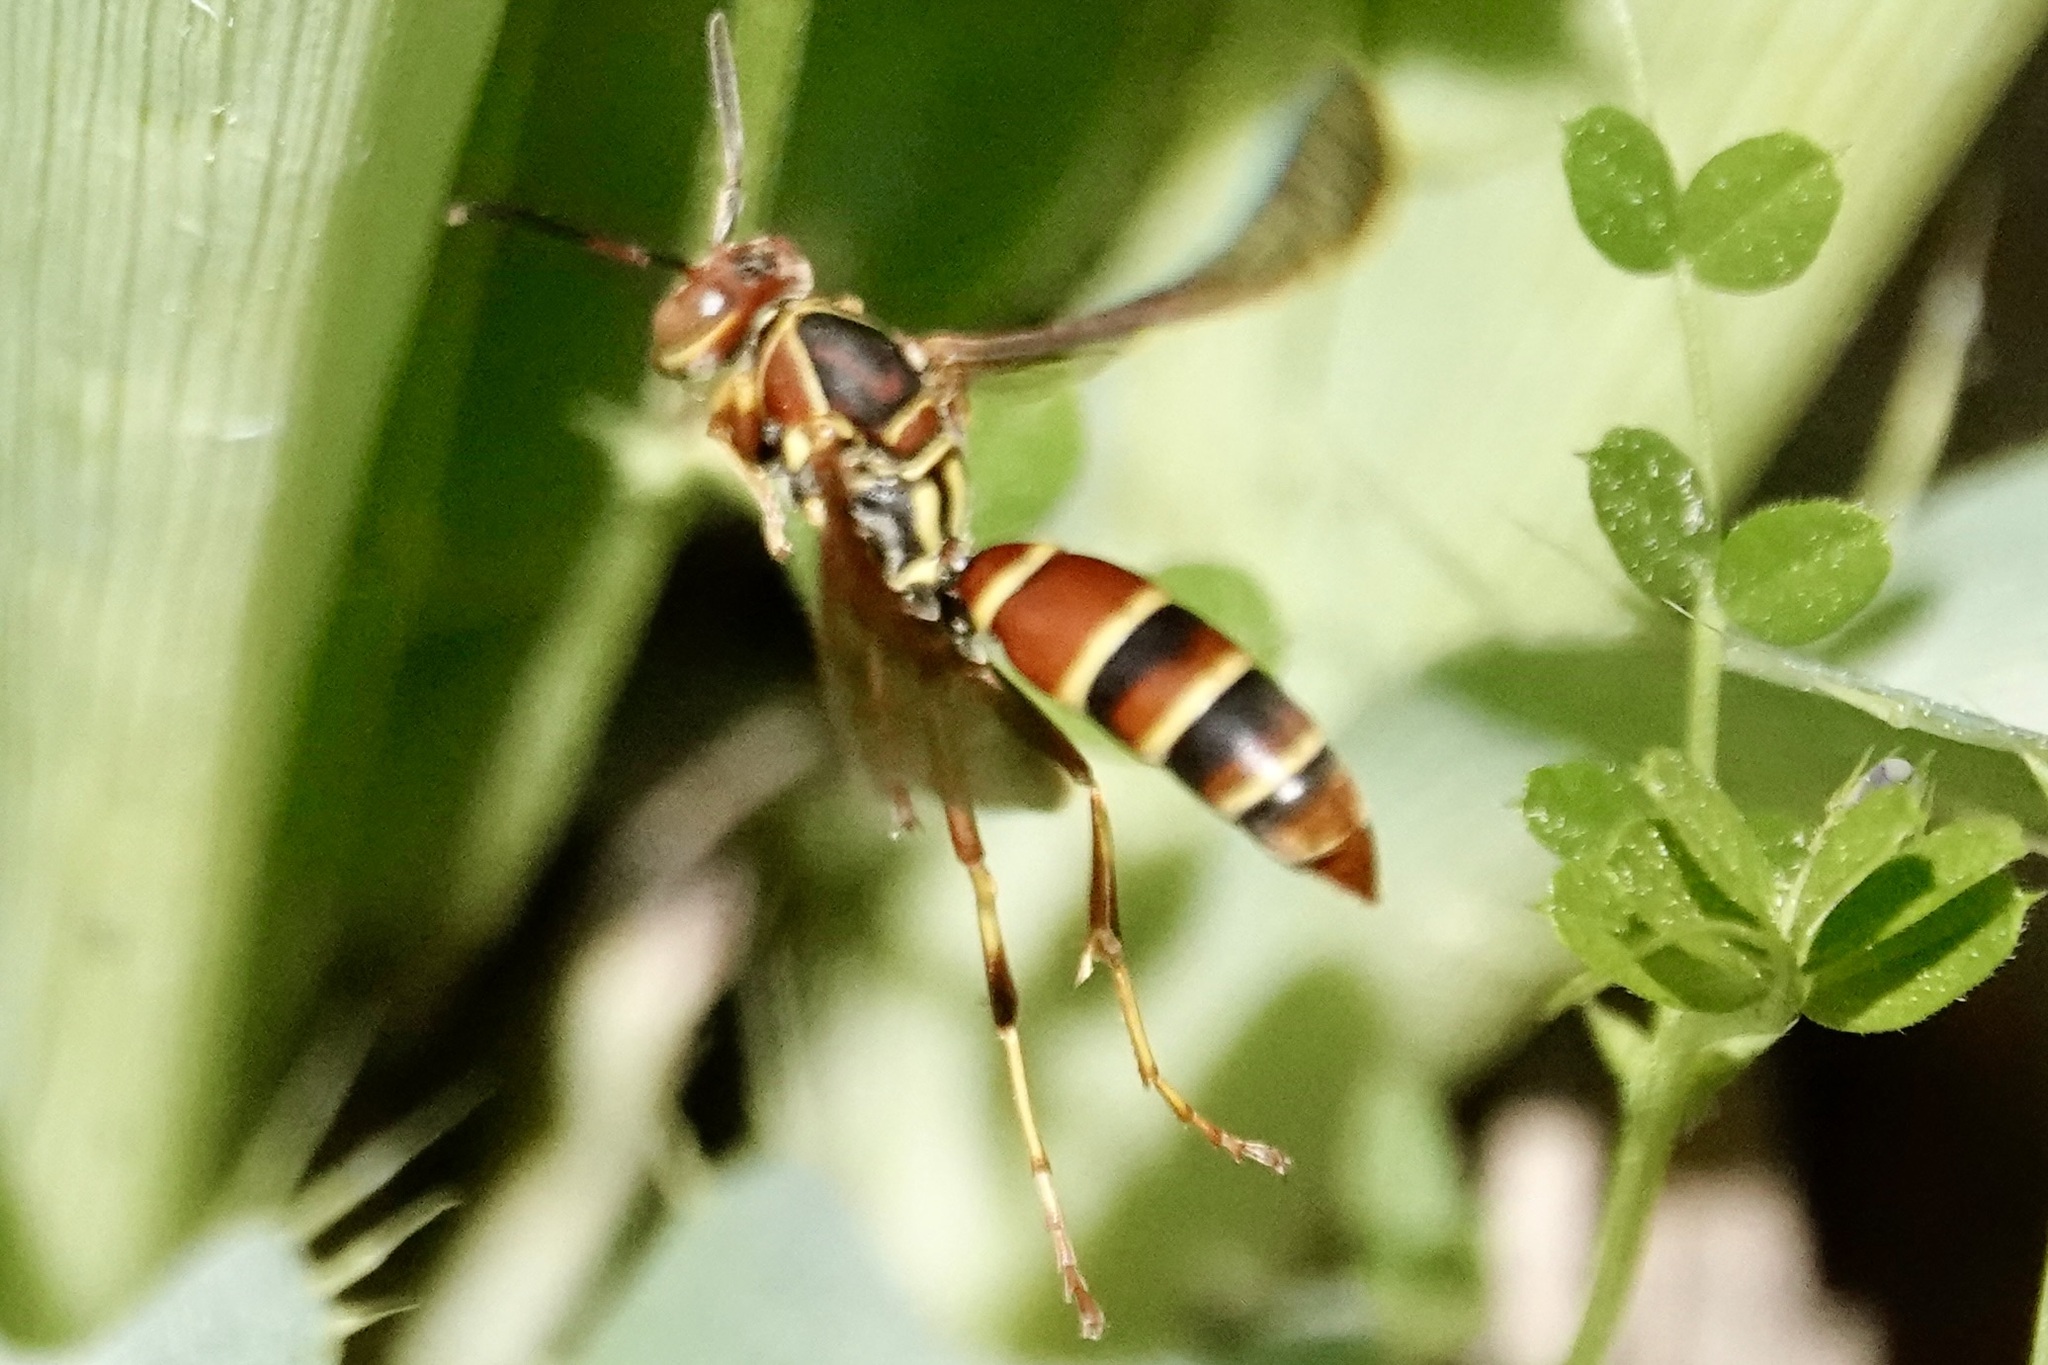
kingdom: Animalia
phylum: Arthropoda
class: Insecta
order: Hymenoptera
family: Eumenidae
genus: Polistes
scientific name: Polistes dorsalis
